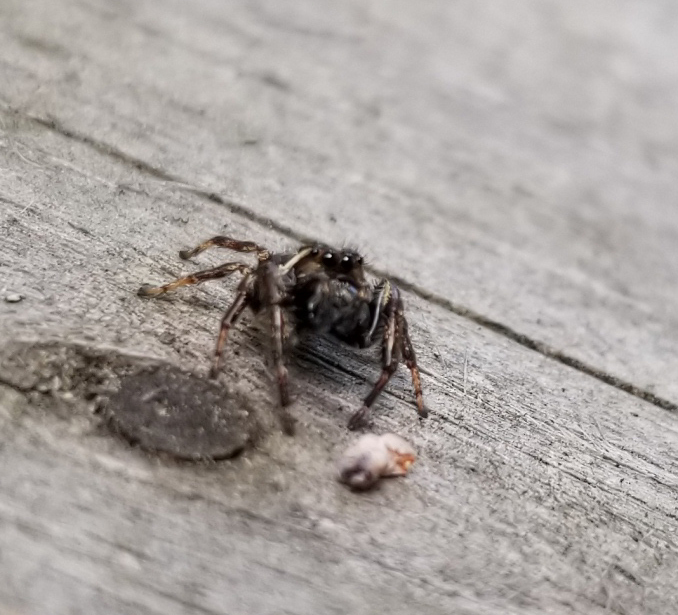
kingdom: Animalia
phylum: Arthropoda
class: Arachnida
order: Araneae
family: Salticidae
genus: Eris
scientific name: Eris militaris
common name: Bronze jumper
